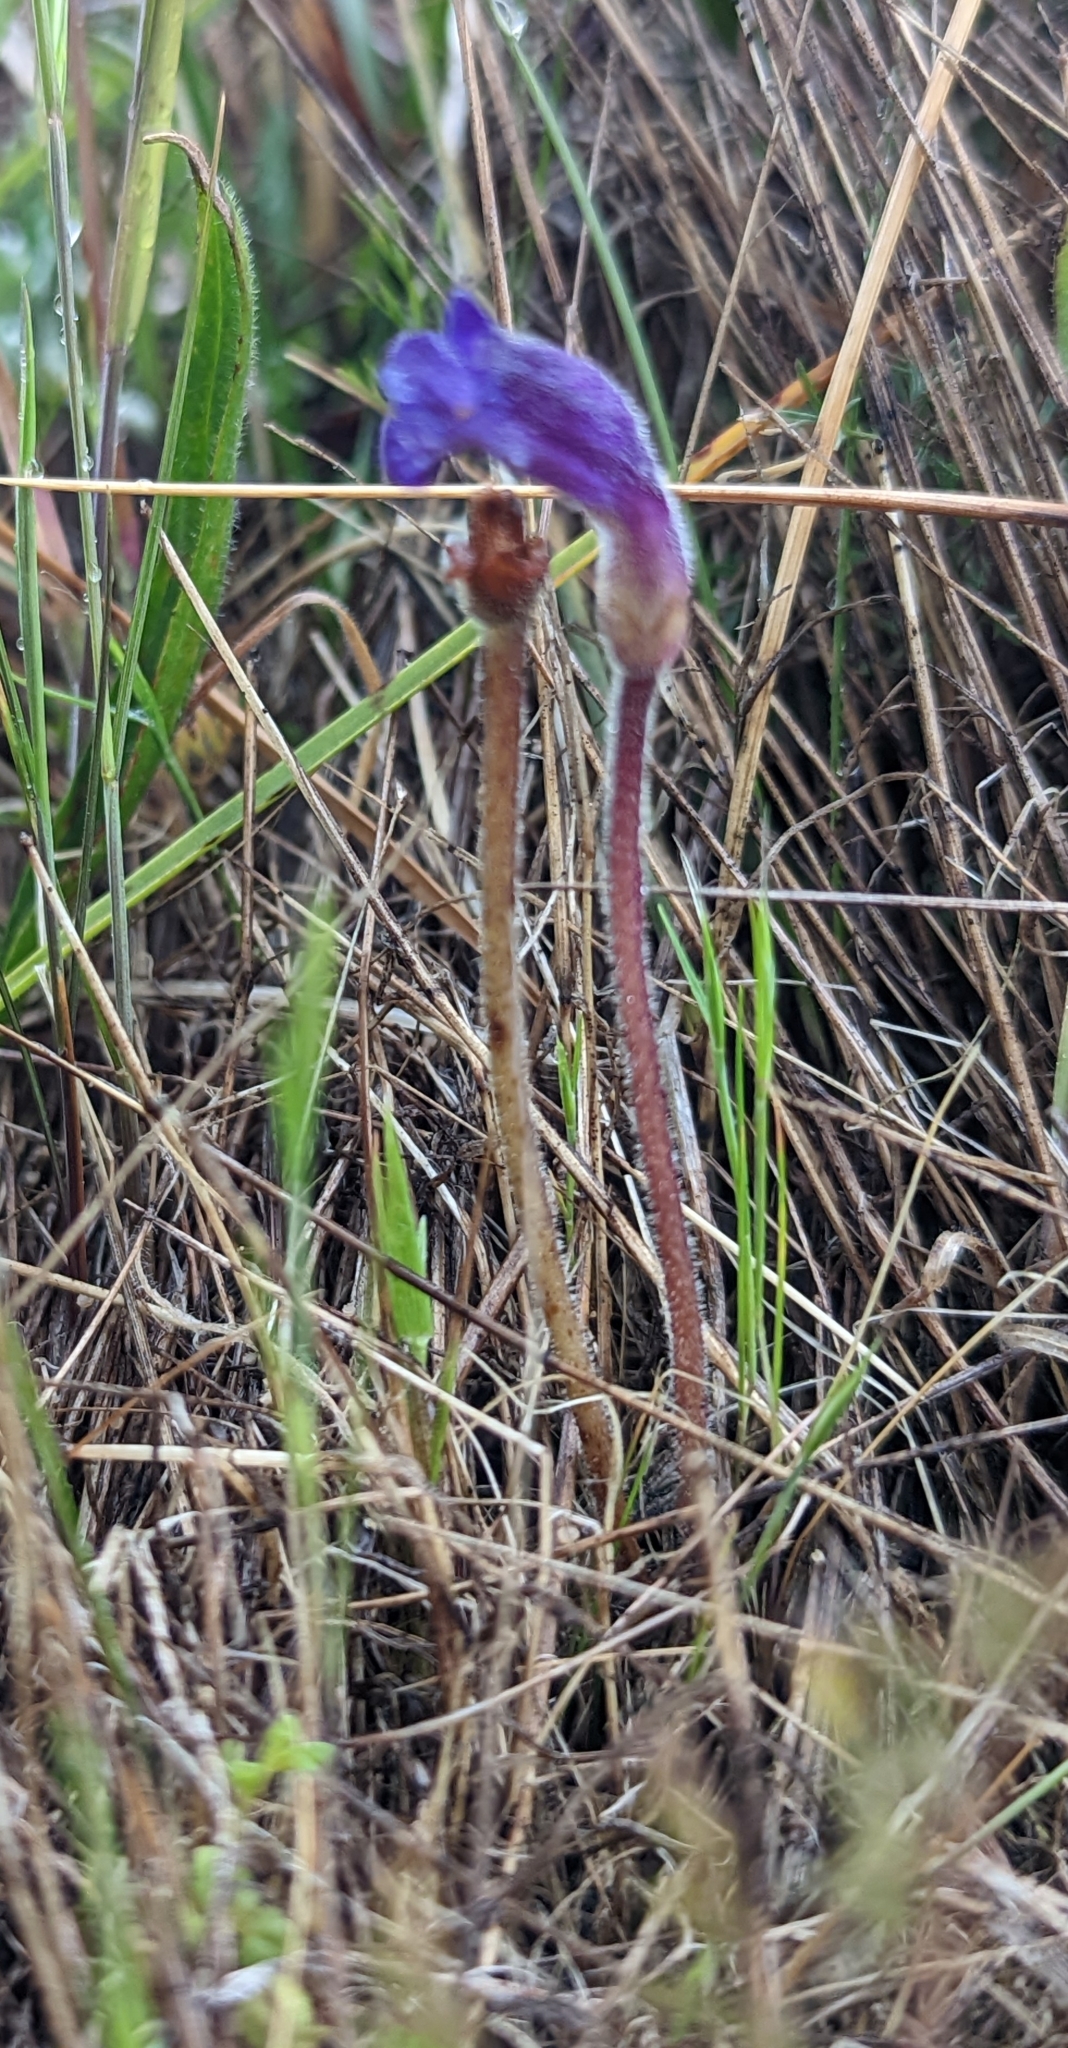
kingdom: Plantae
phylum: Tracheophyta
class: Magnoliopsida
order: Lamiales
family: Orobanchaceae
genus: Aphyllon
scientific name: Aphyllon uniflorum
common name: One-flowered broomrape
